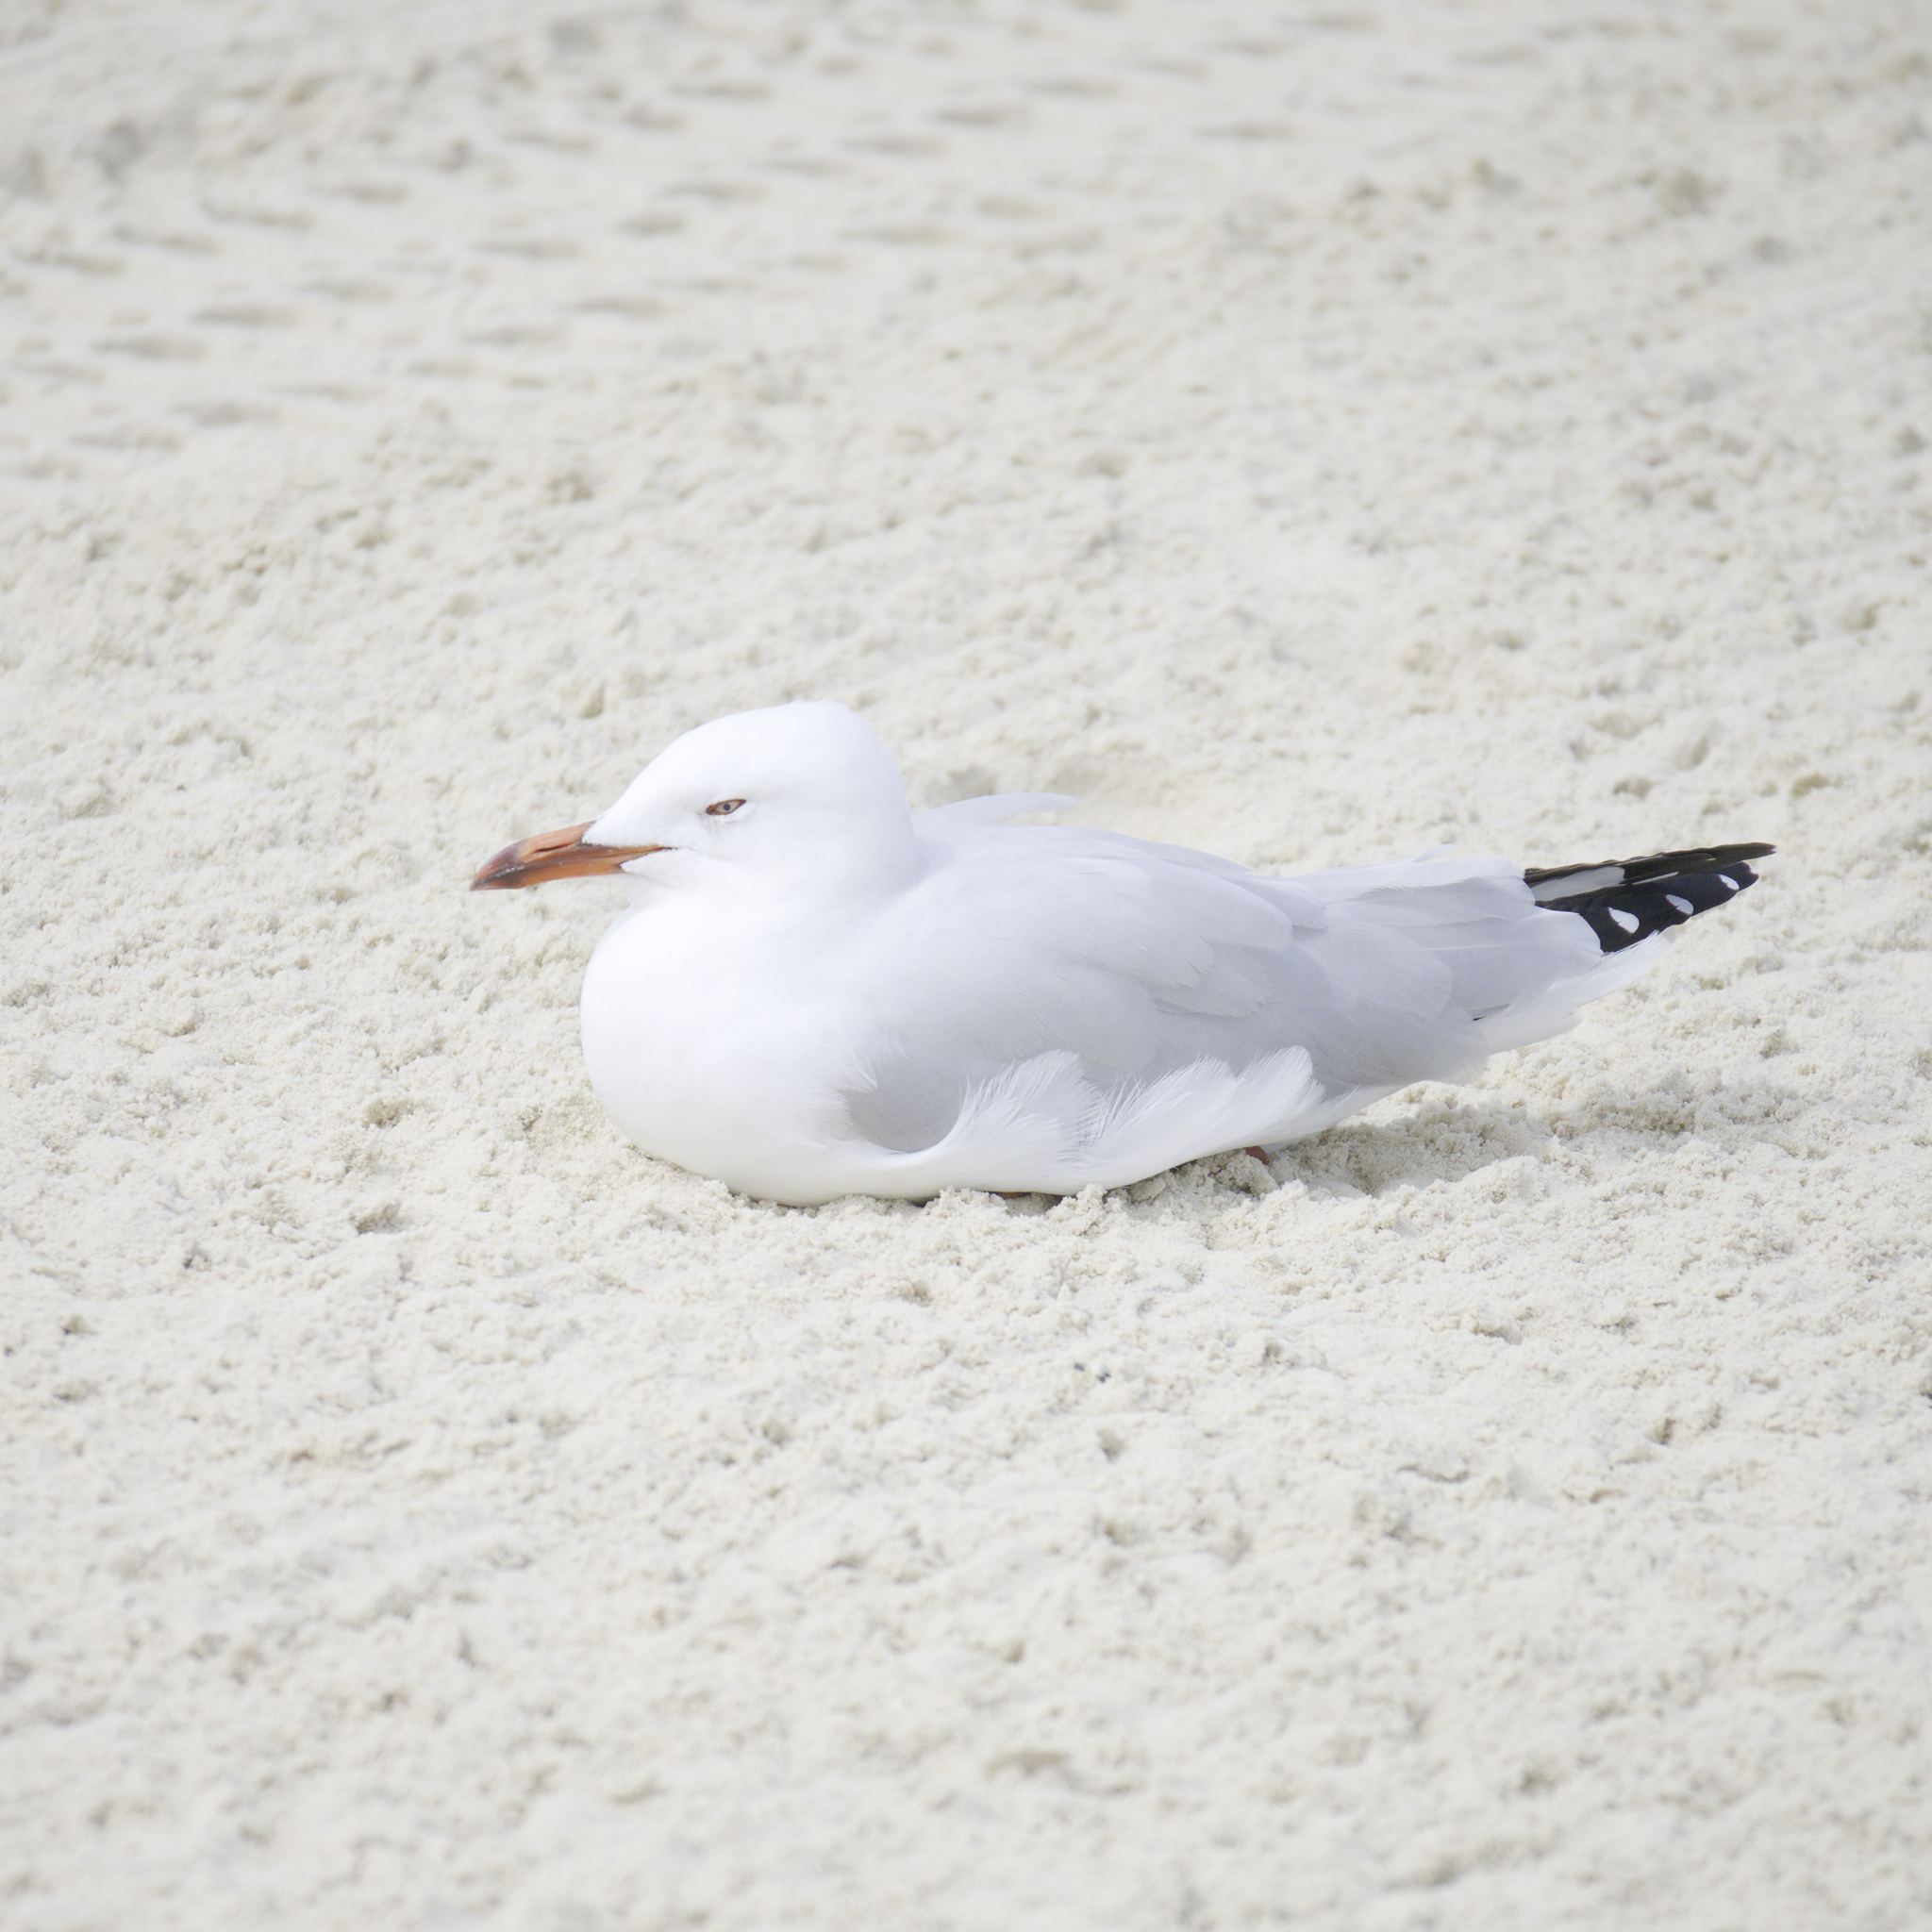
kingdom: Animalia
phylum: Chordata
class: Aves
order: Charadriiformes
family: Laridae
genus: Chroicocephalus
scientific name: Chroicocephalus novaehollandiae
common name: Silver gull
